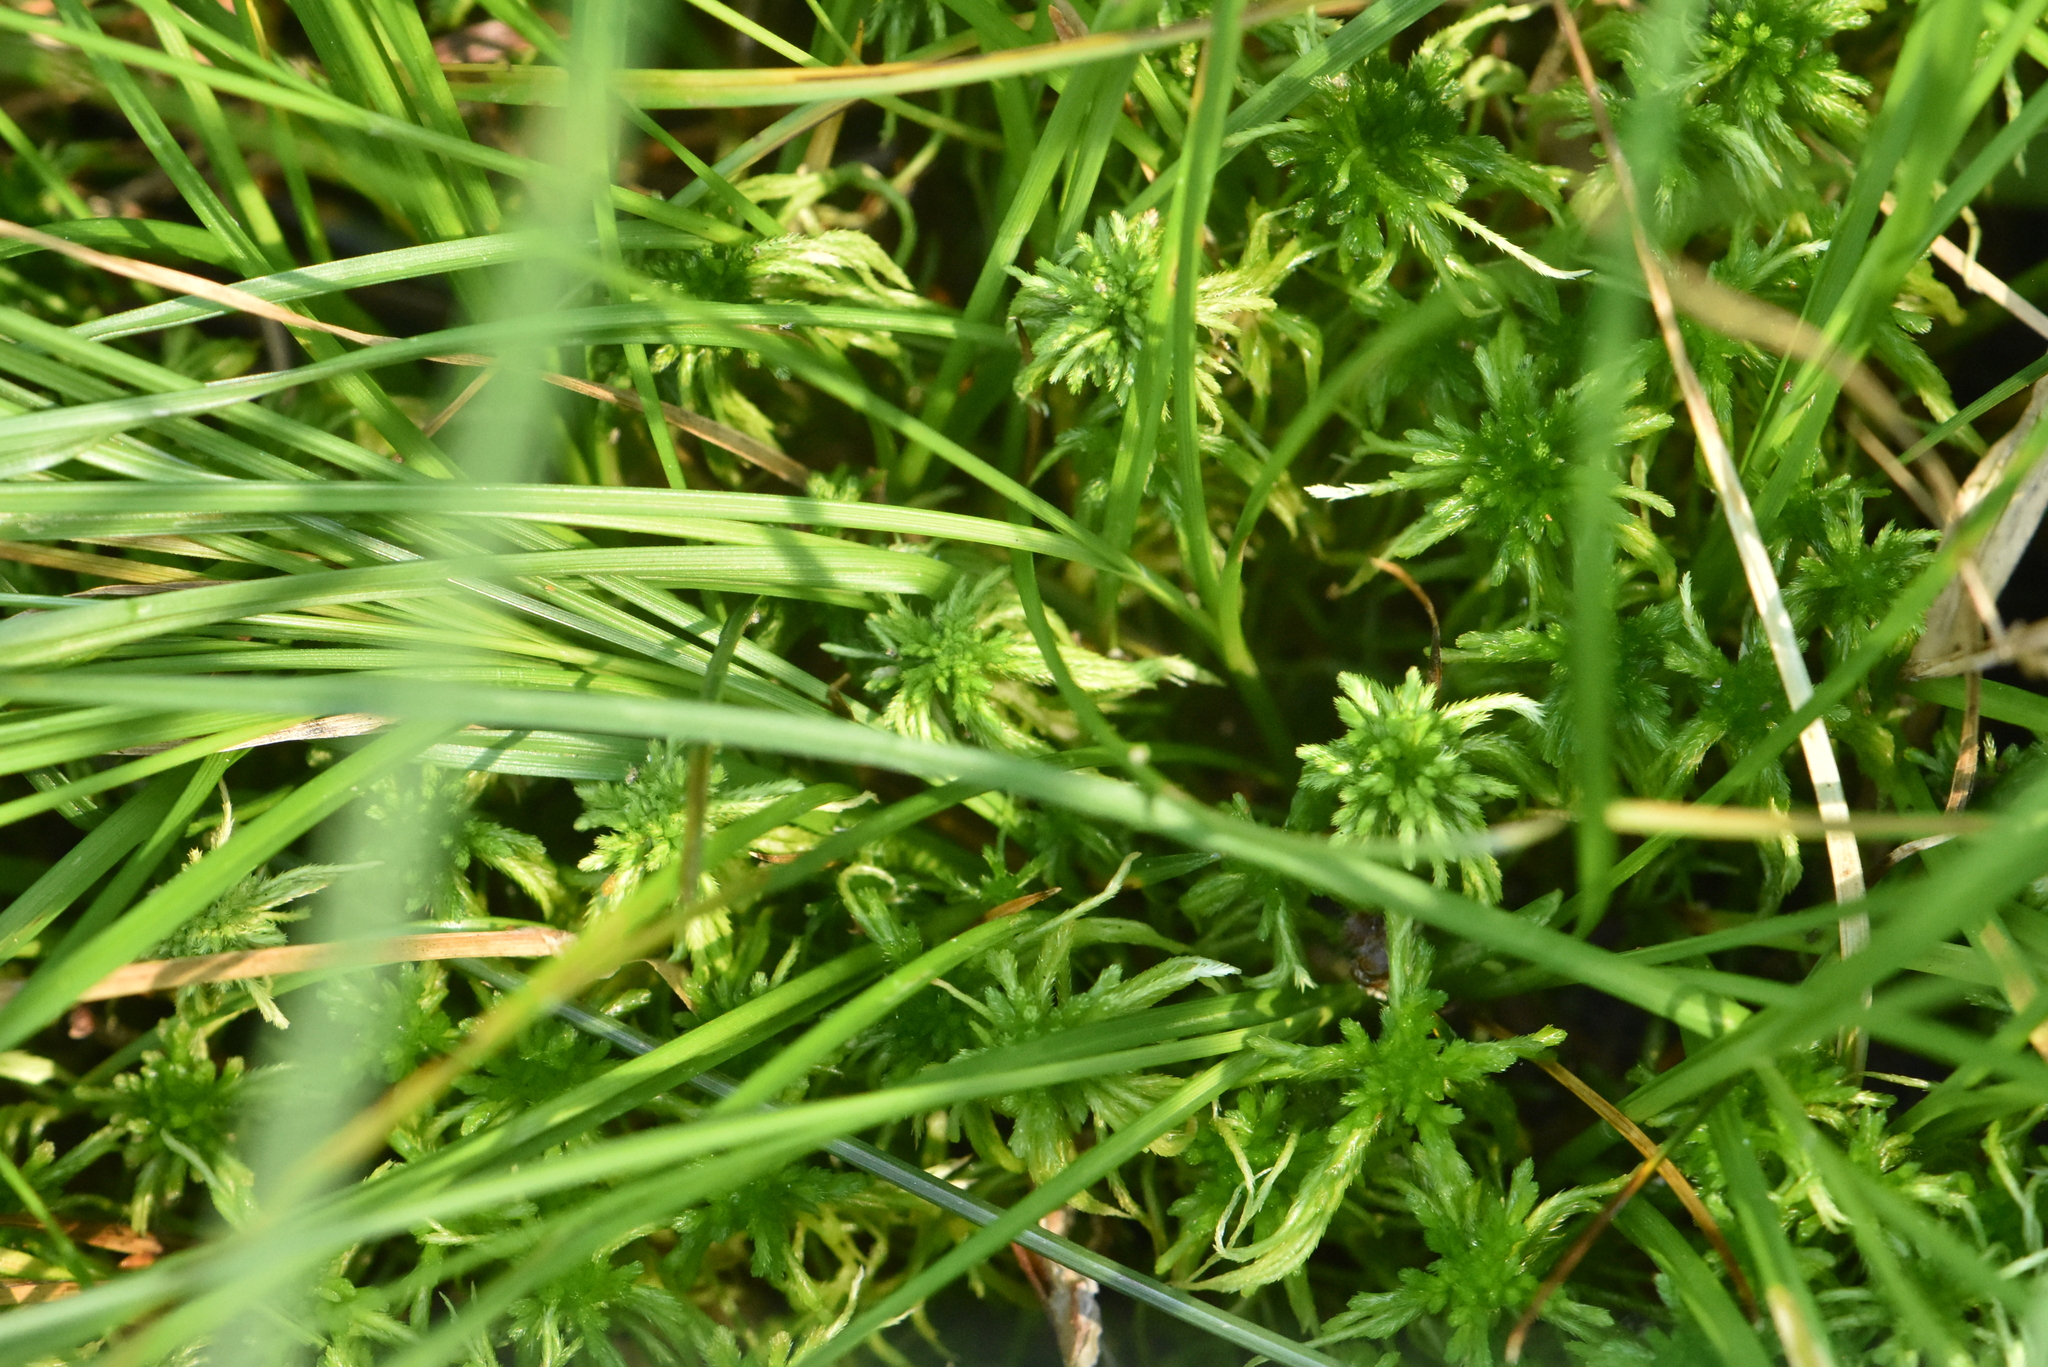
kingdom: Plantae
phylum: Tracheophyta
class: Liliopsida
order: Poales
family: Cyperaceae
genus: Carex
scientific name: Carex echinata
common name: Star sedge
